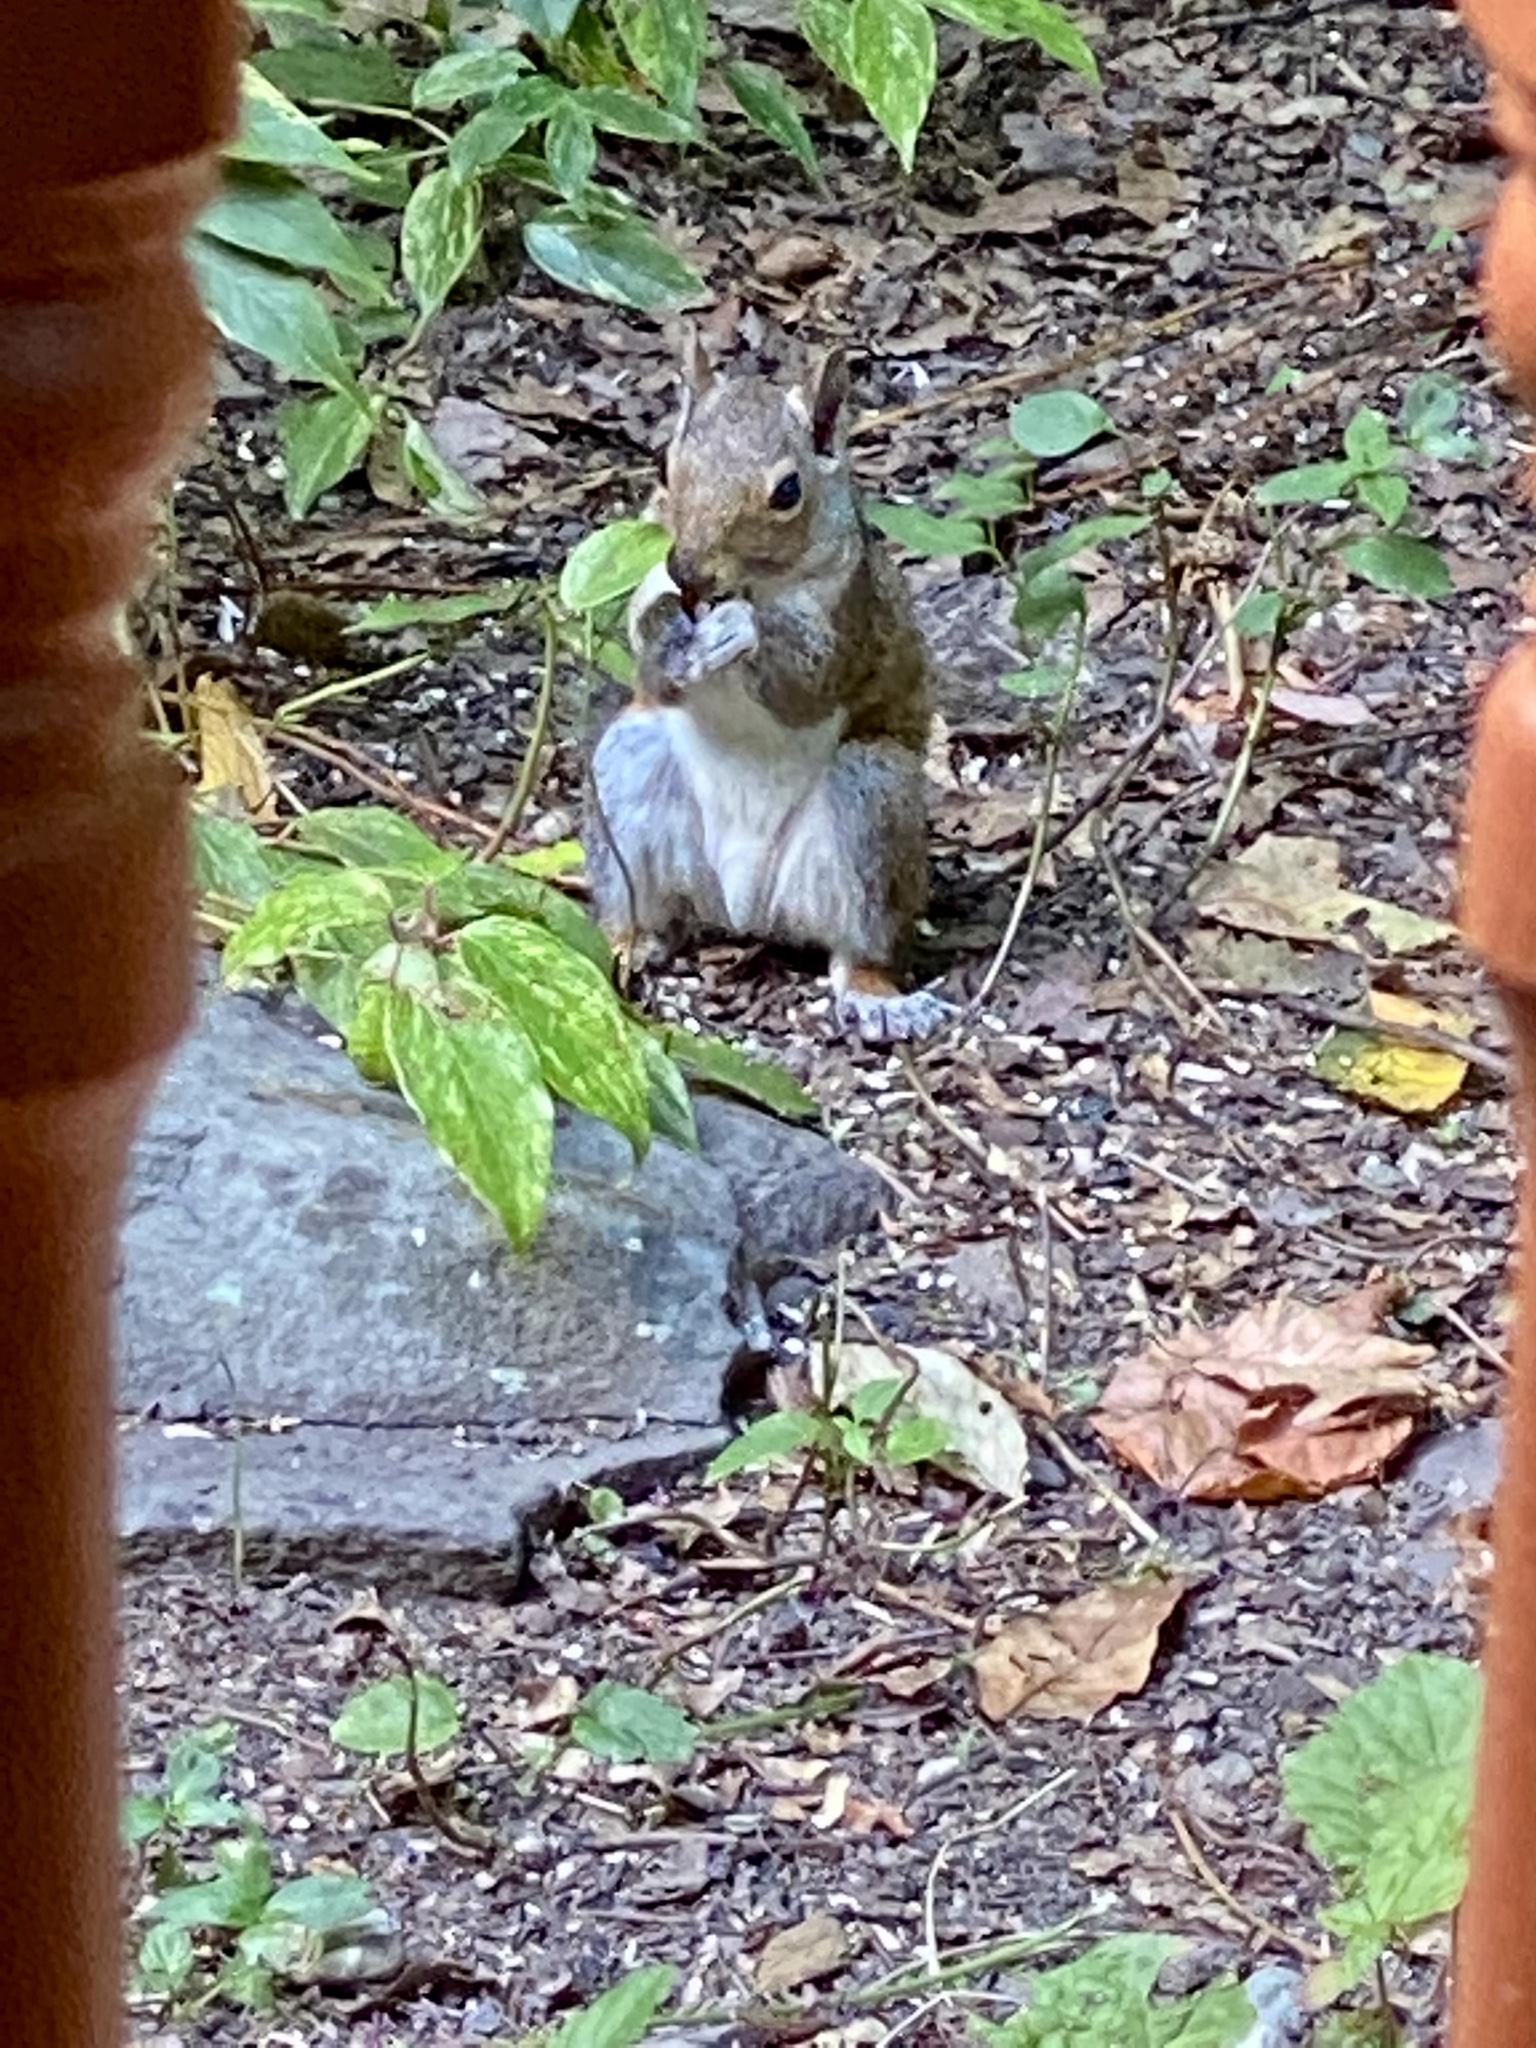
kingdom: Animalia
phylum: Chordata
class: Mammalia
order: Rodentia
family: Sciuridae
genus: Sciurus
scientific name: Sciurus carolinensis
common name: Eastern gray squirrel
